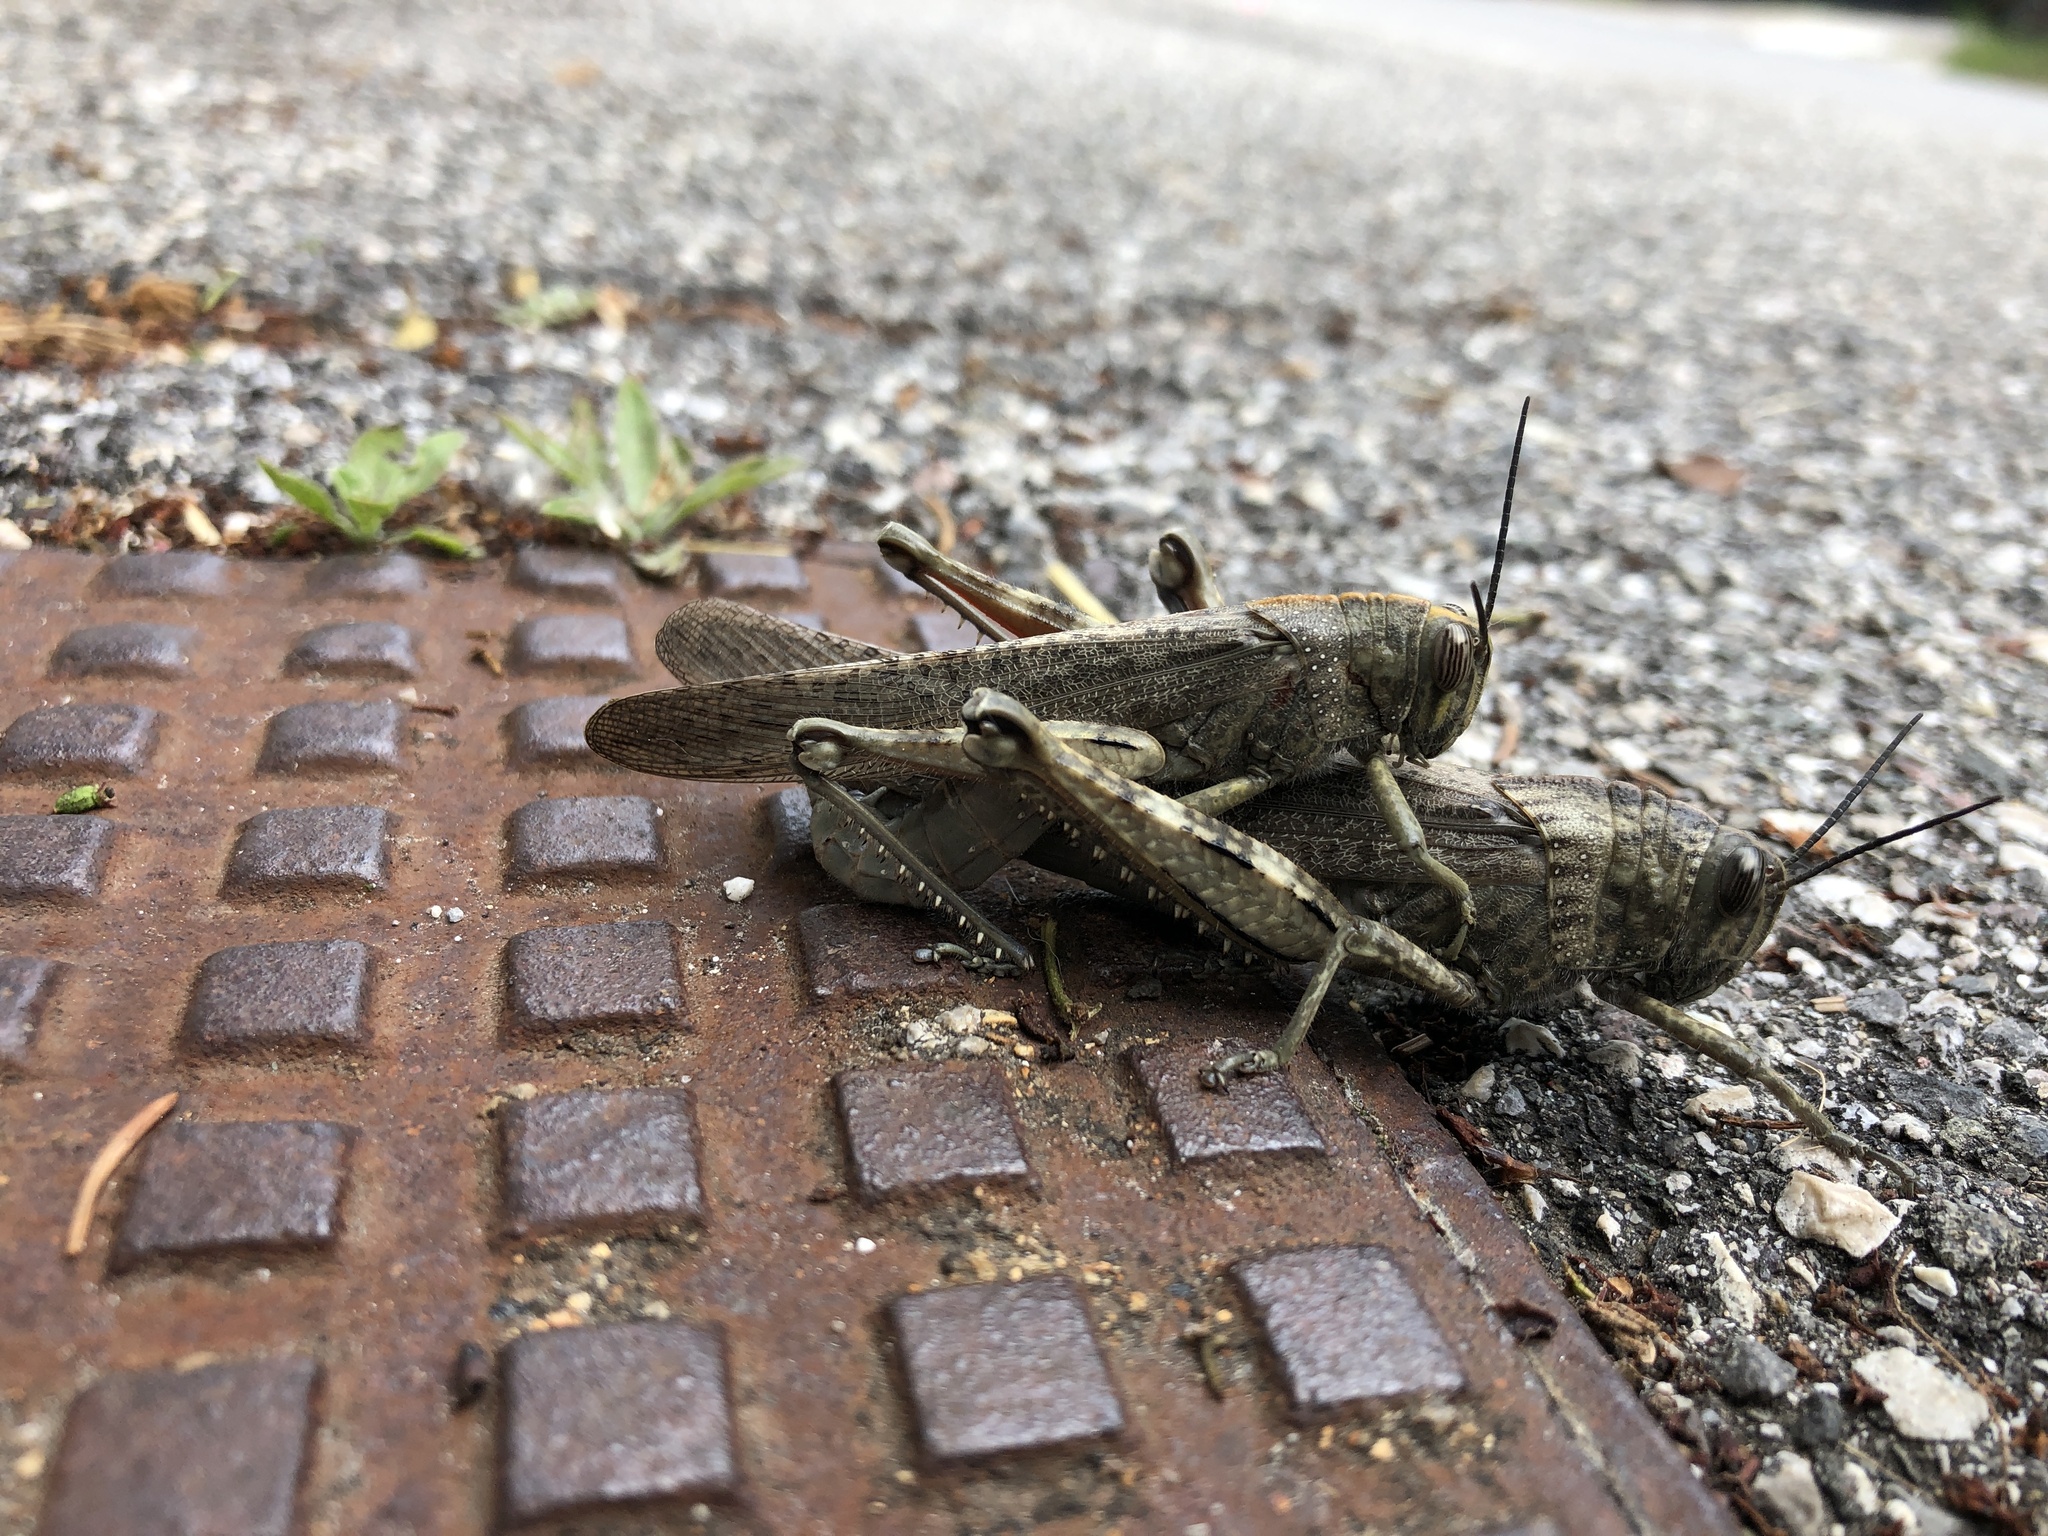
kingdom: Animalia
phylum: Arthropoda
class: Insecta
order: Orthoptera
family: Acrididae
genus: Anacridium
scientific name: Anacridium aegyptium
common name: Egyptian grasshopper
